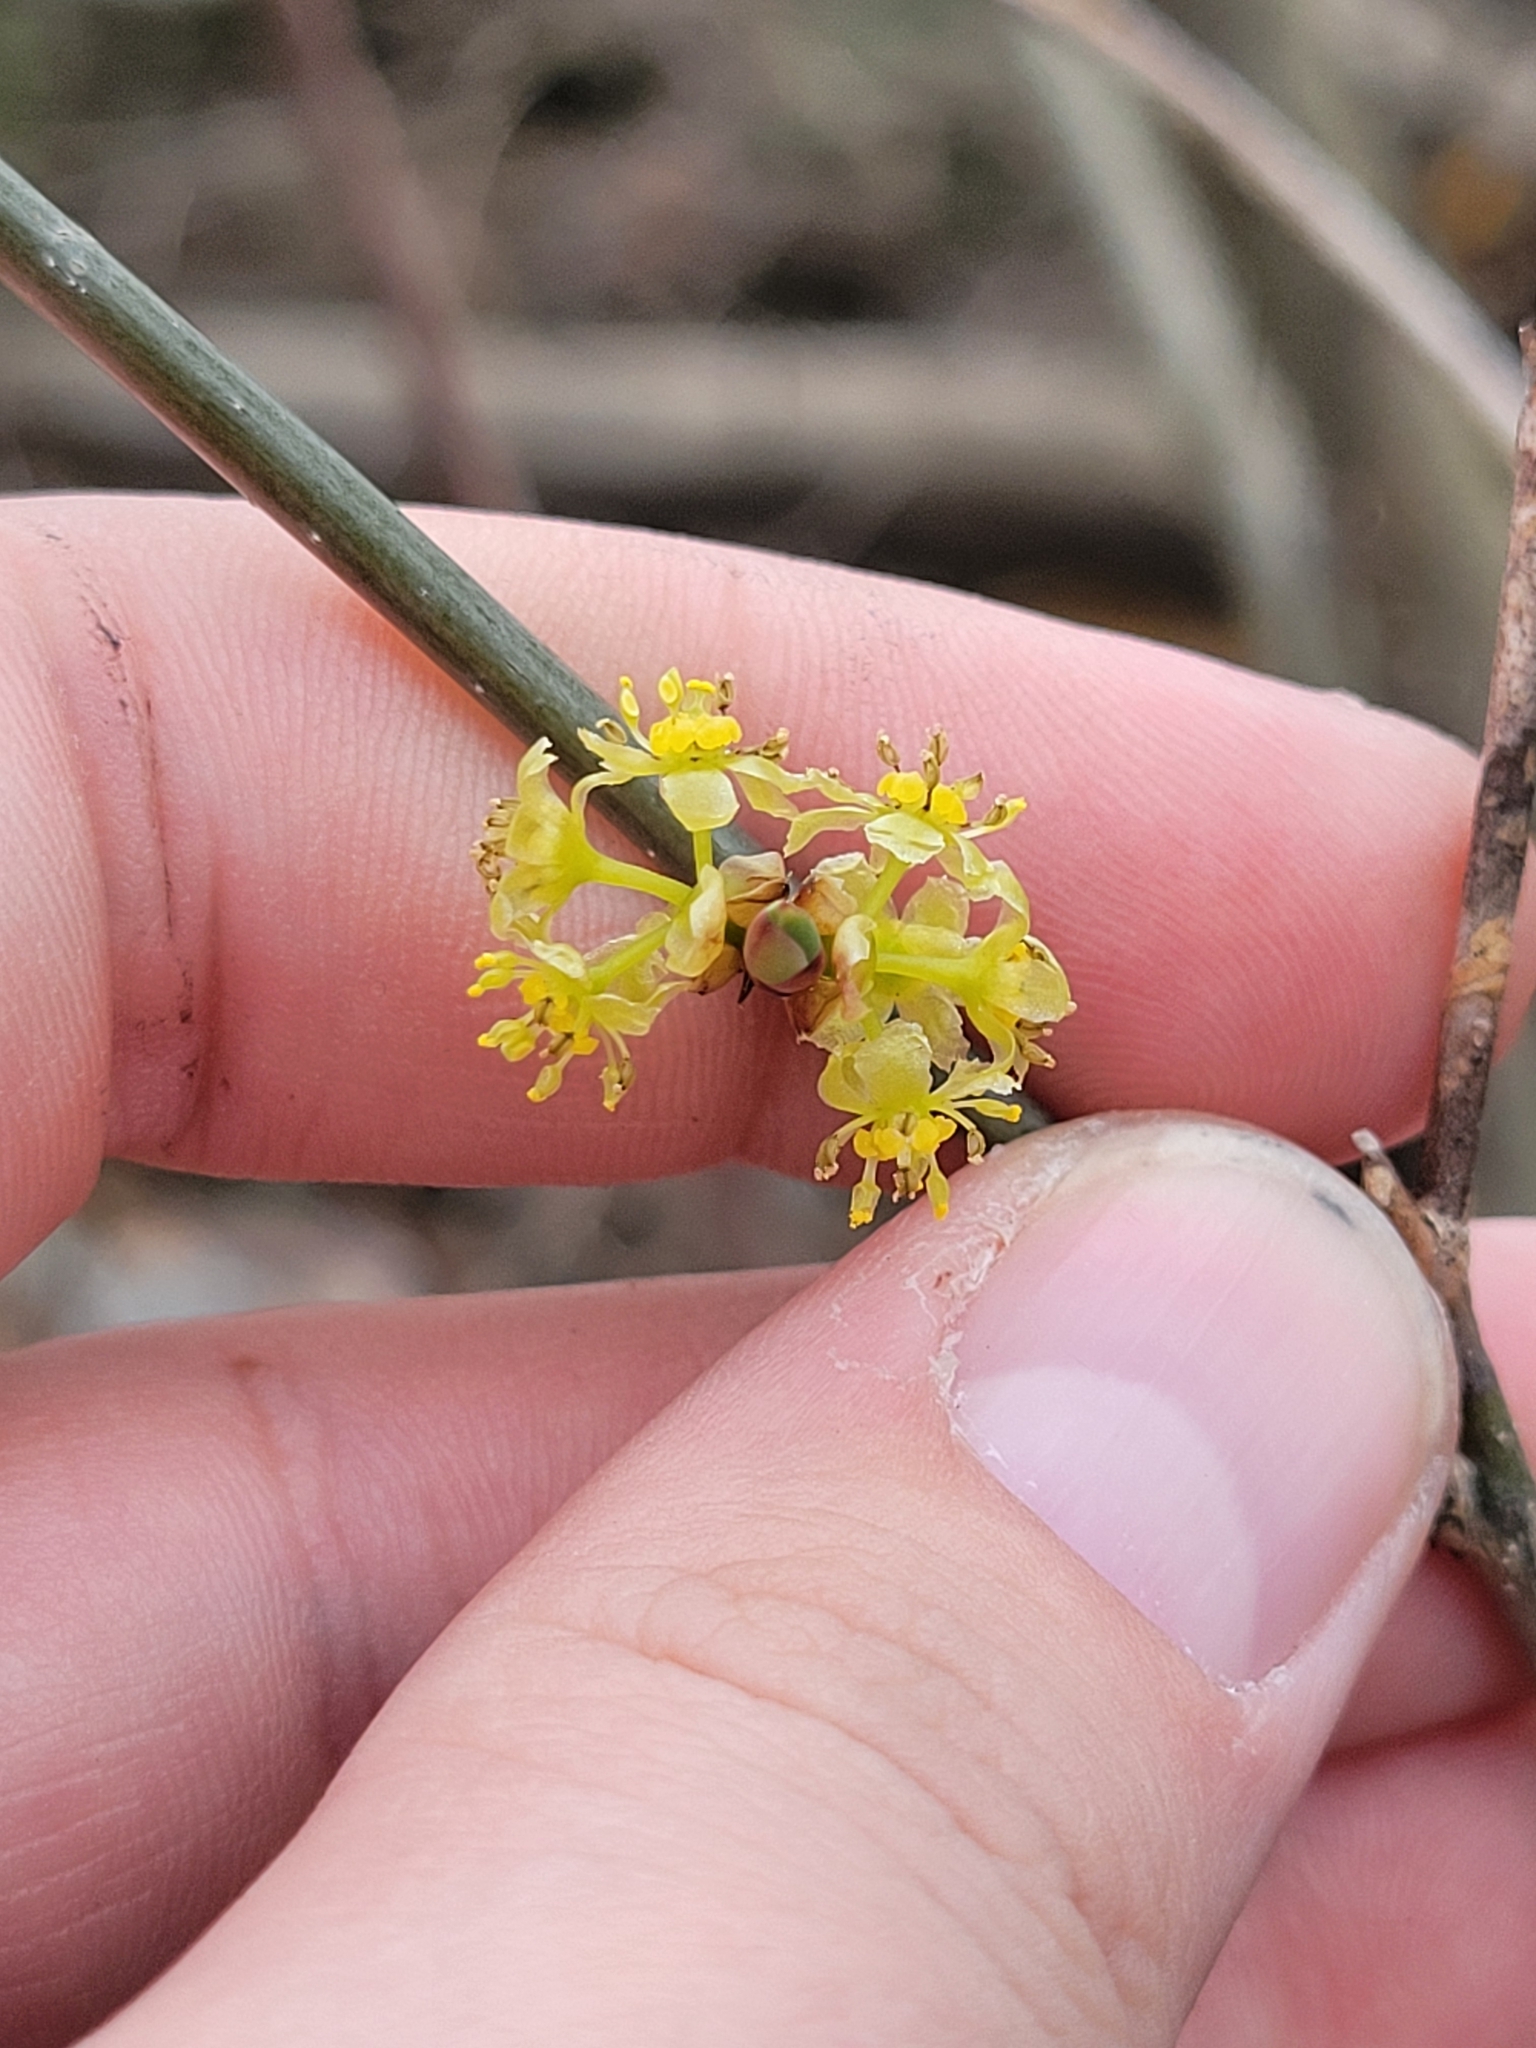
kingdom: Plantae
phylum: Tracheophyta
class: Magnoliopsida
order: Laurales
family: Lauraceae
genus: Lindera
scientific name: Lindera benzoin
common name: Spicebush
